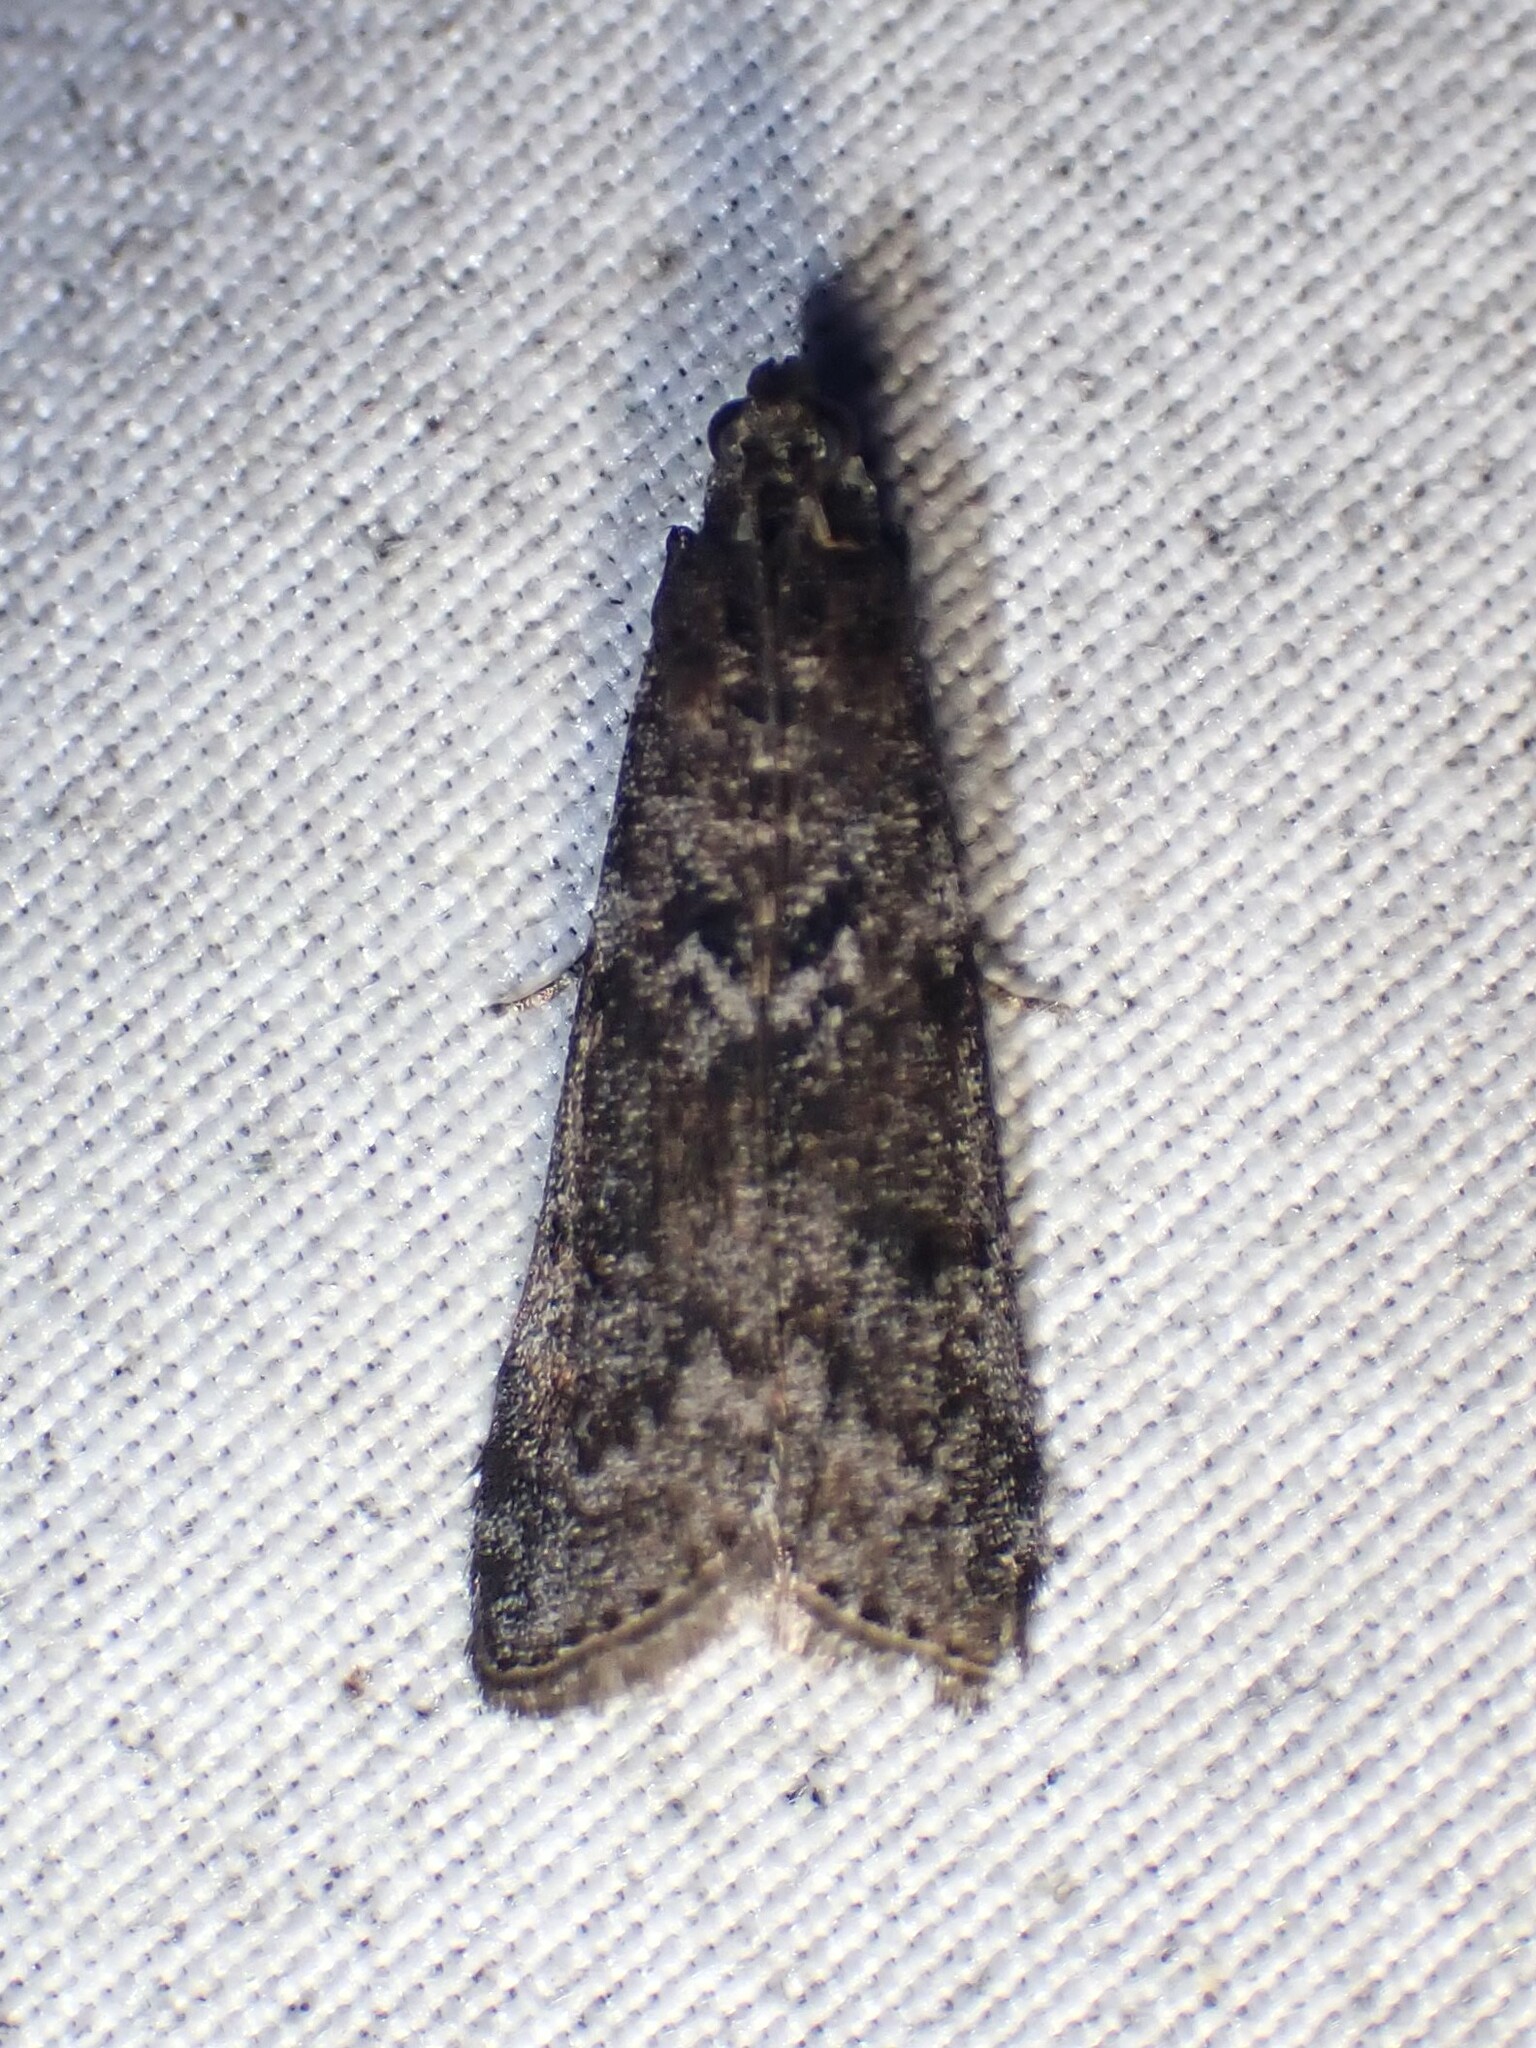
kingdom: Animalia
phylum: Arthropoda
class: Insecta
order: Lepidoptera
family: Pyralidae
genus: Pyla
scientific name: Pyla fusca
